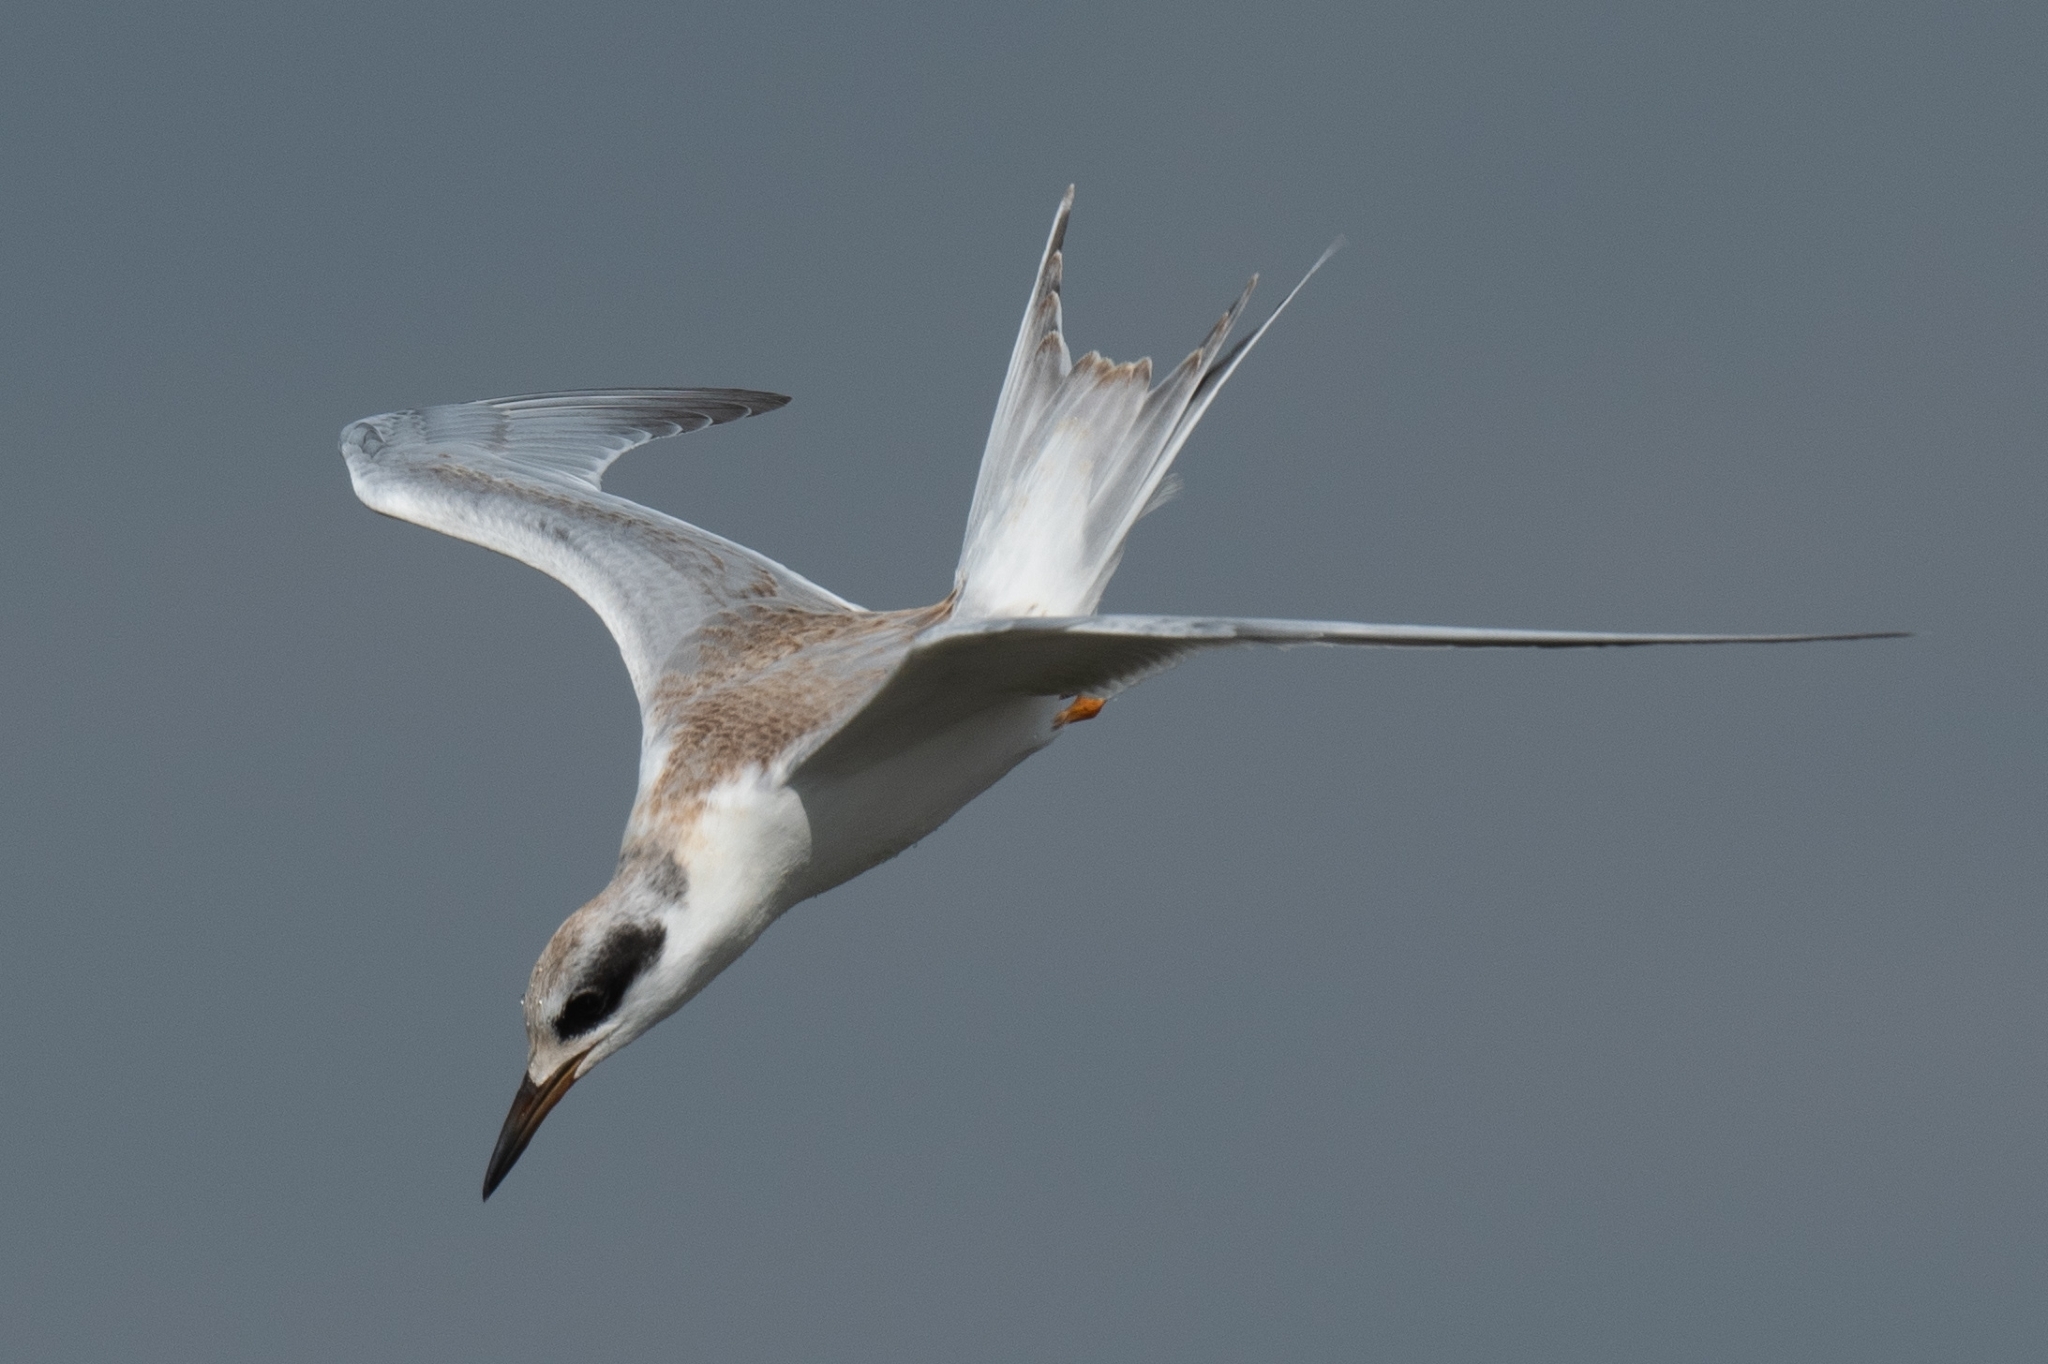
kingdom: Animalia
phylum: Chordata
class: Aves
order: Charadriiformes
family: Laridae
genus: Sterna
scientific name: Sterna forsteri
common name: Forster's tern
